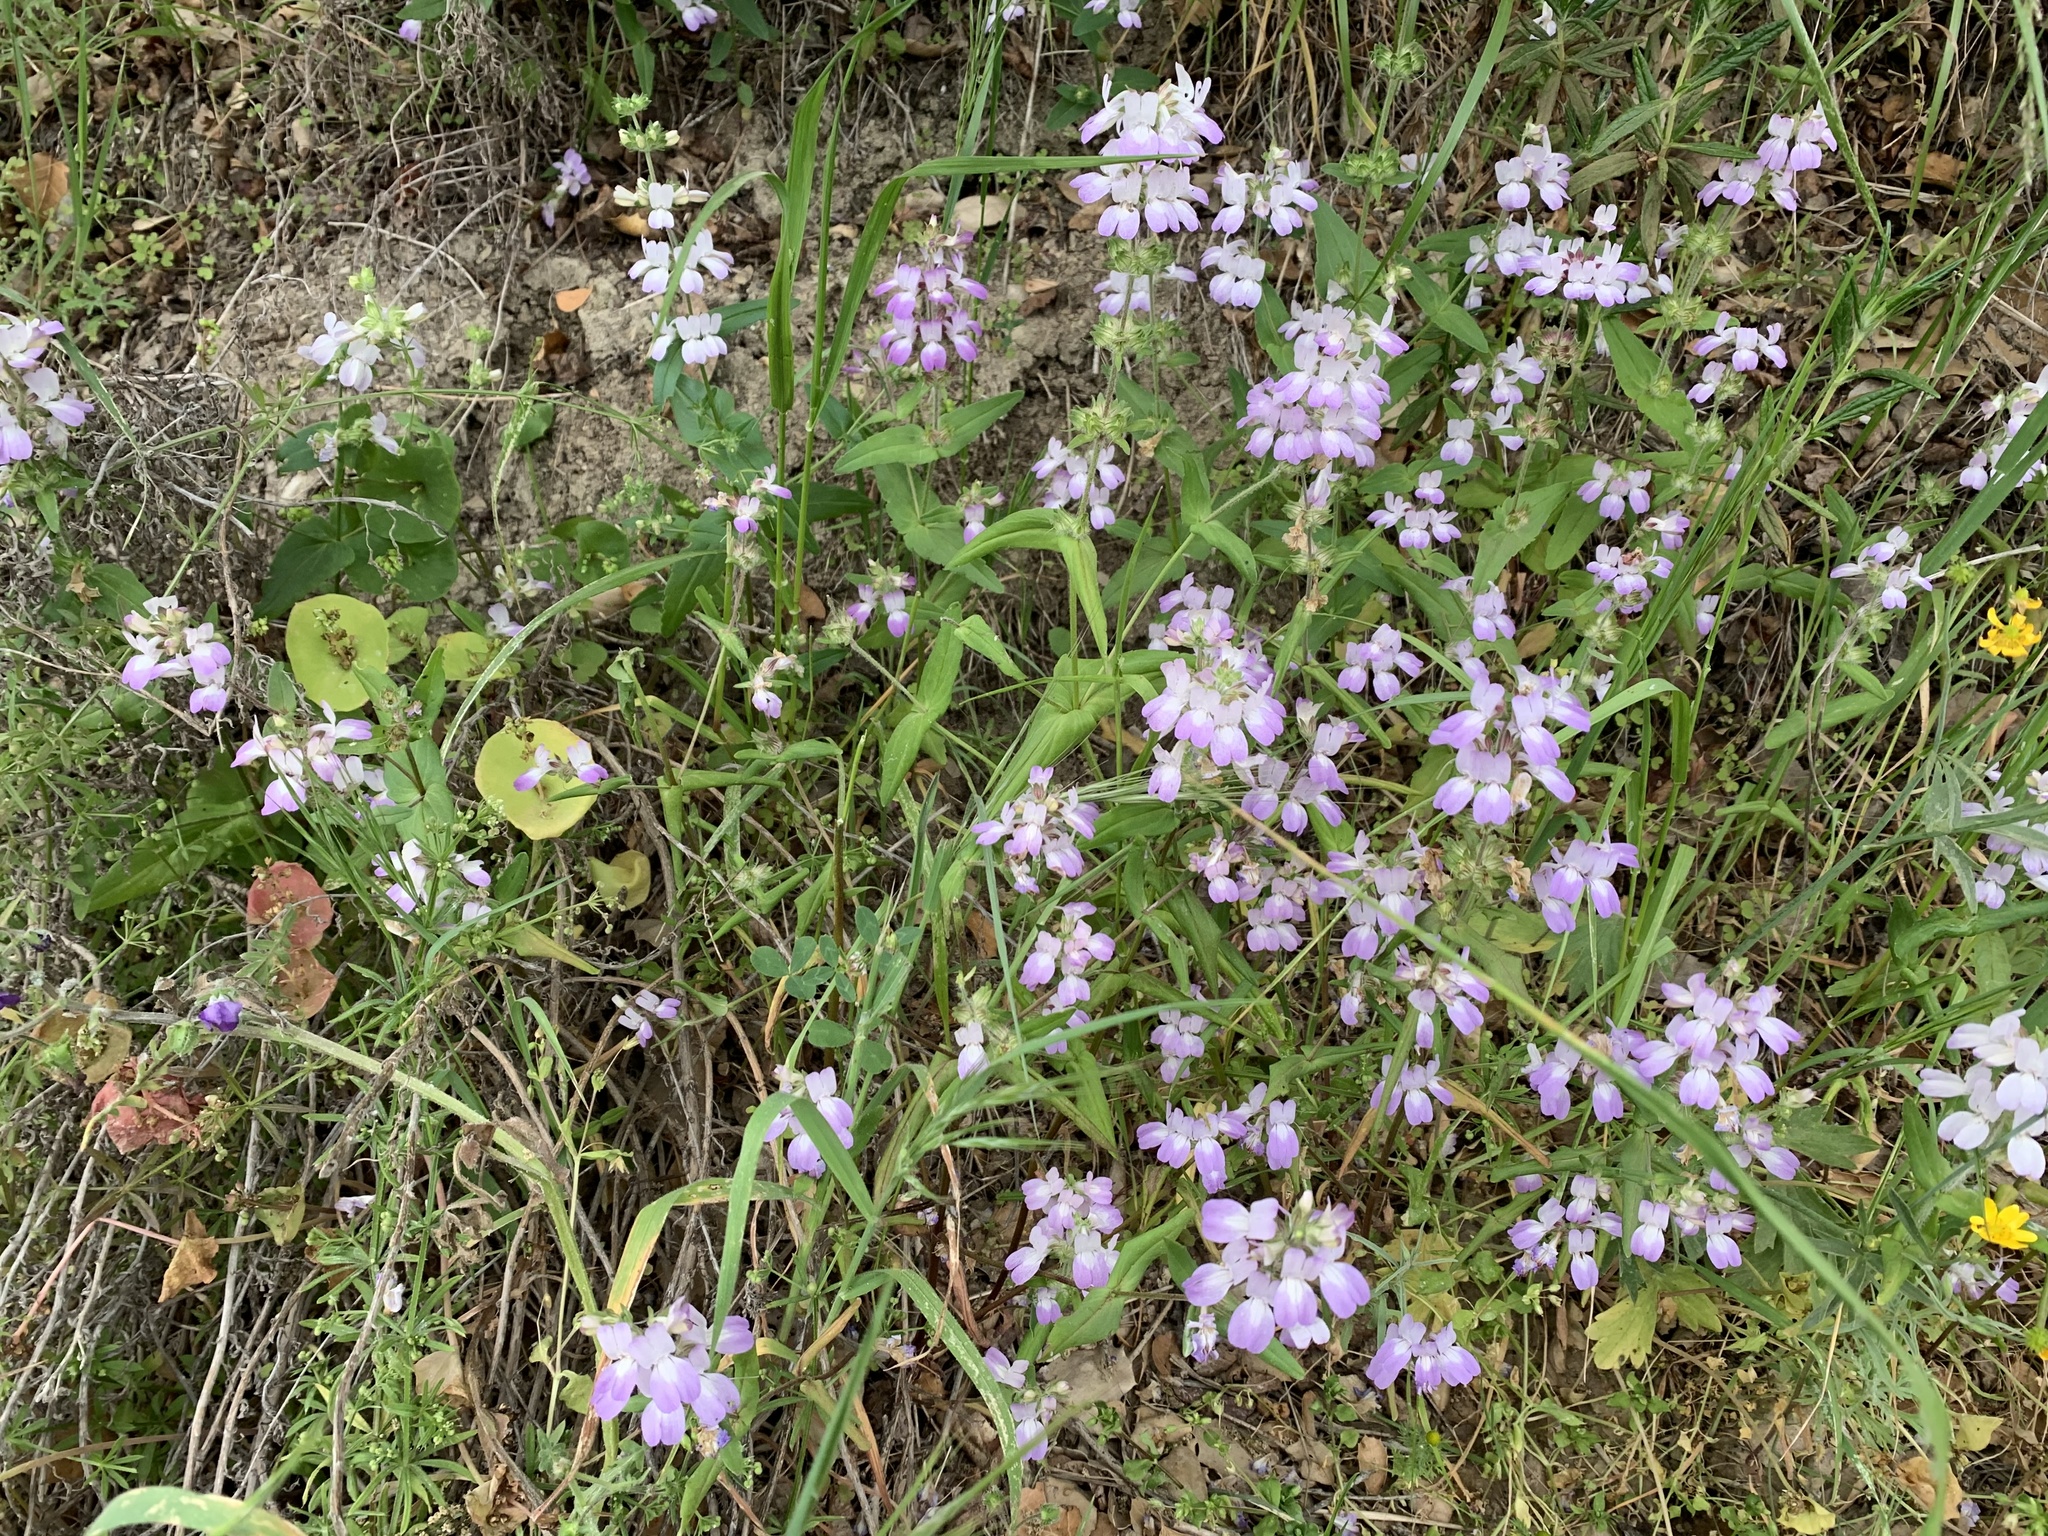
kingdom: Plantae
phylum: Tracheophyta
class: Magnoliopsida
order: Lamiales
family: Plantaginaceae
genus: Collinsia
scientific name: Collinsia heterophylla
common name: Chinese-houses
